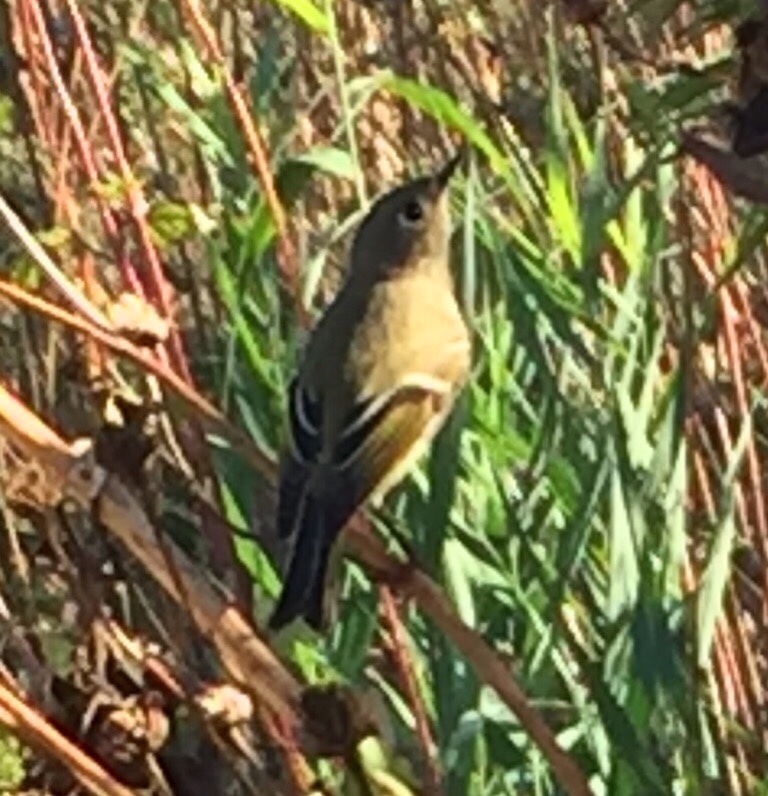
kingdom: Animalia
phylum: Chordata
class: Aves
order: Passeriformes
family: Regulidae
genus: Regulus
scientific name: Regulus calendula
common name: Ruby-crowned kinglet
